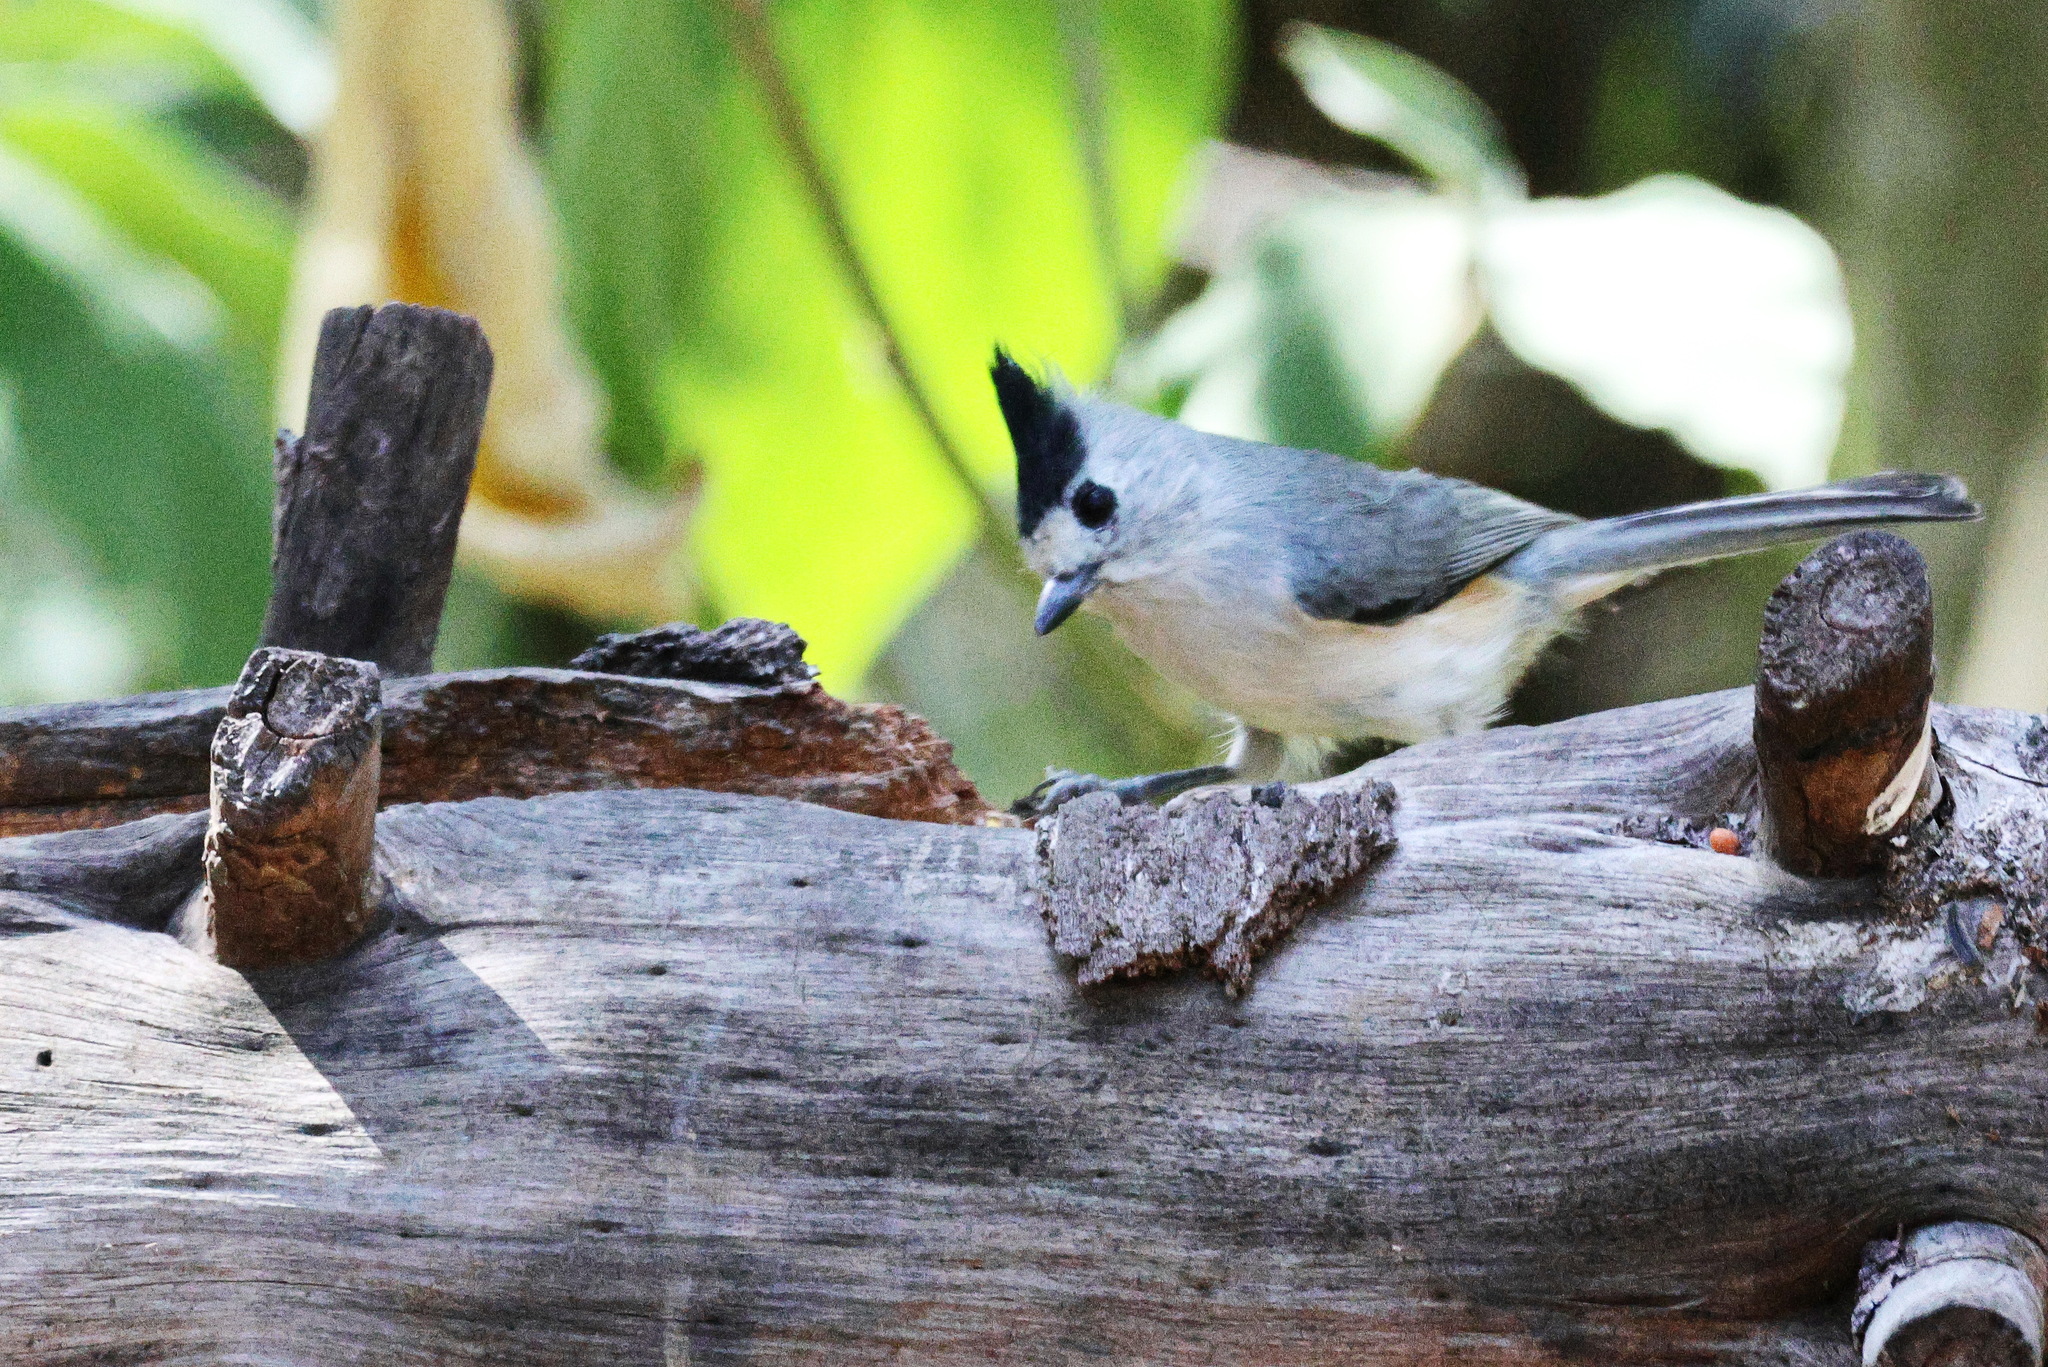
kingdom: Animalia
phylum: Chordata
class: Aves
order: Passeriformes
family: Paridae
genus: Baeolophus
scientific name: Baeolophus atricristatus
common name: Black-crested titmouse
